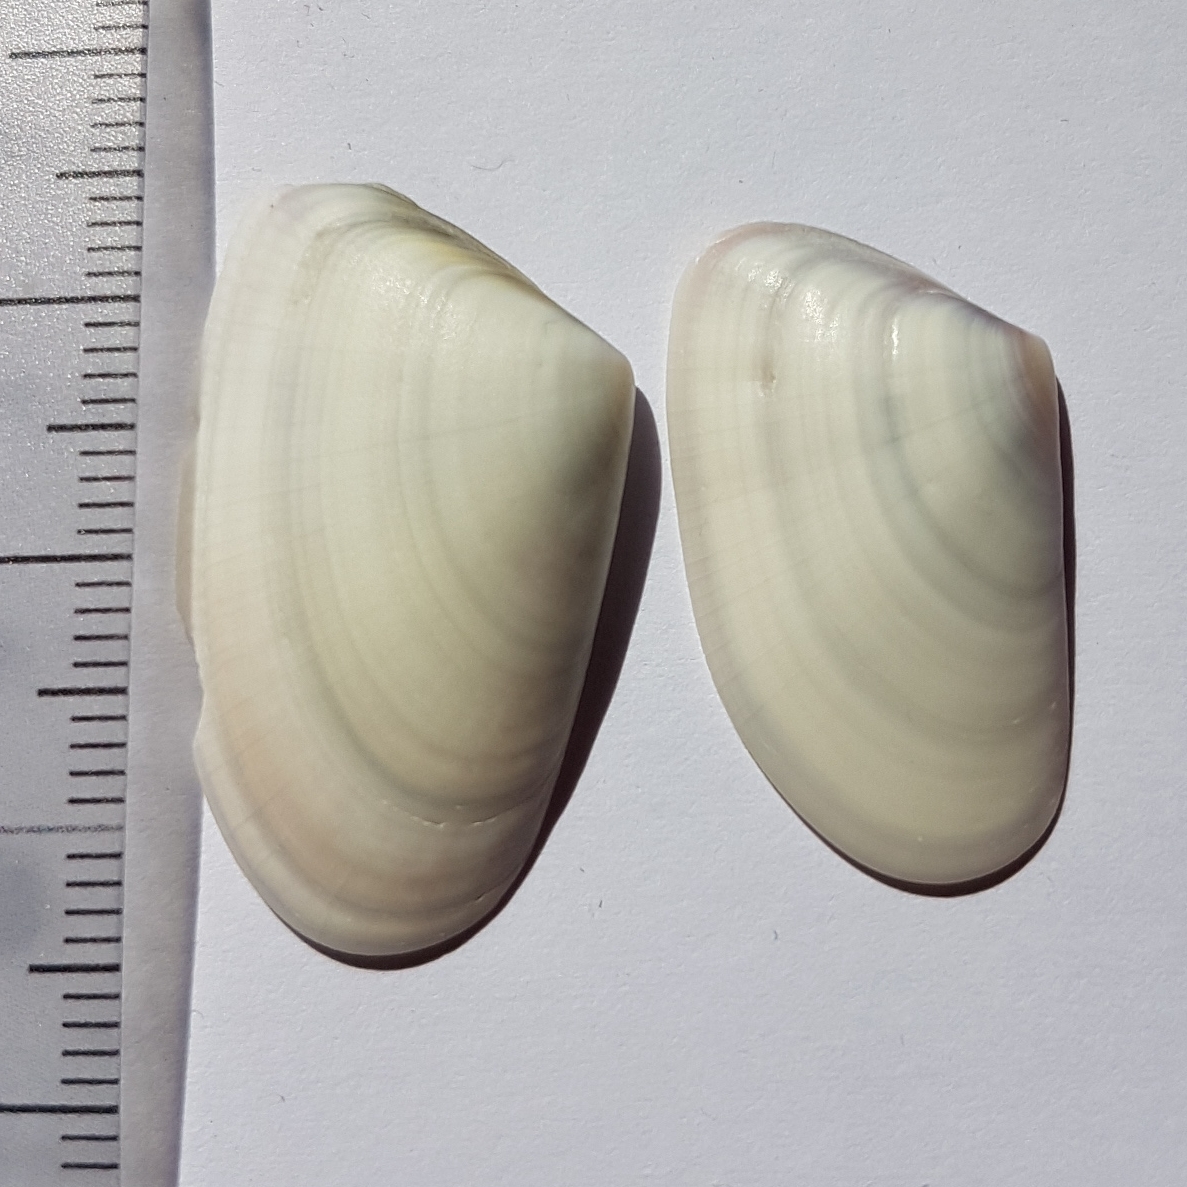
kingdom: Animalia
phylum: Mollusca
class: Bivalvia
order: Cardiida
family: Donacidae
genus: Donax
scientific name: Donax trunculus
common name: Truncate donax
